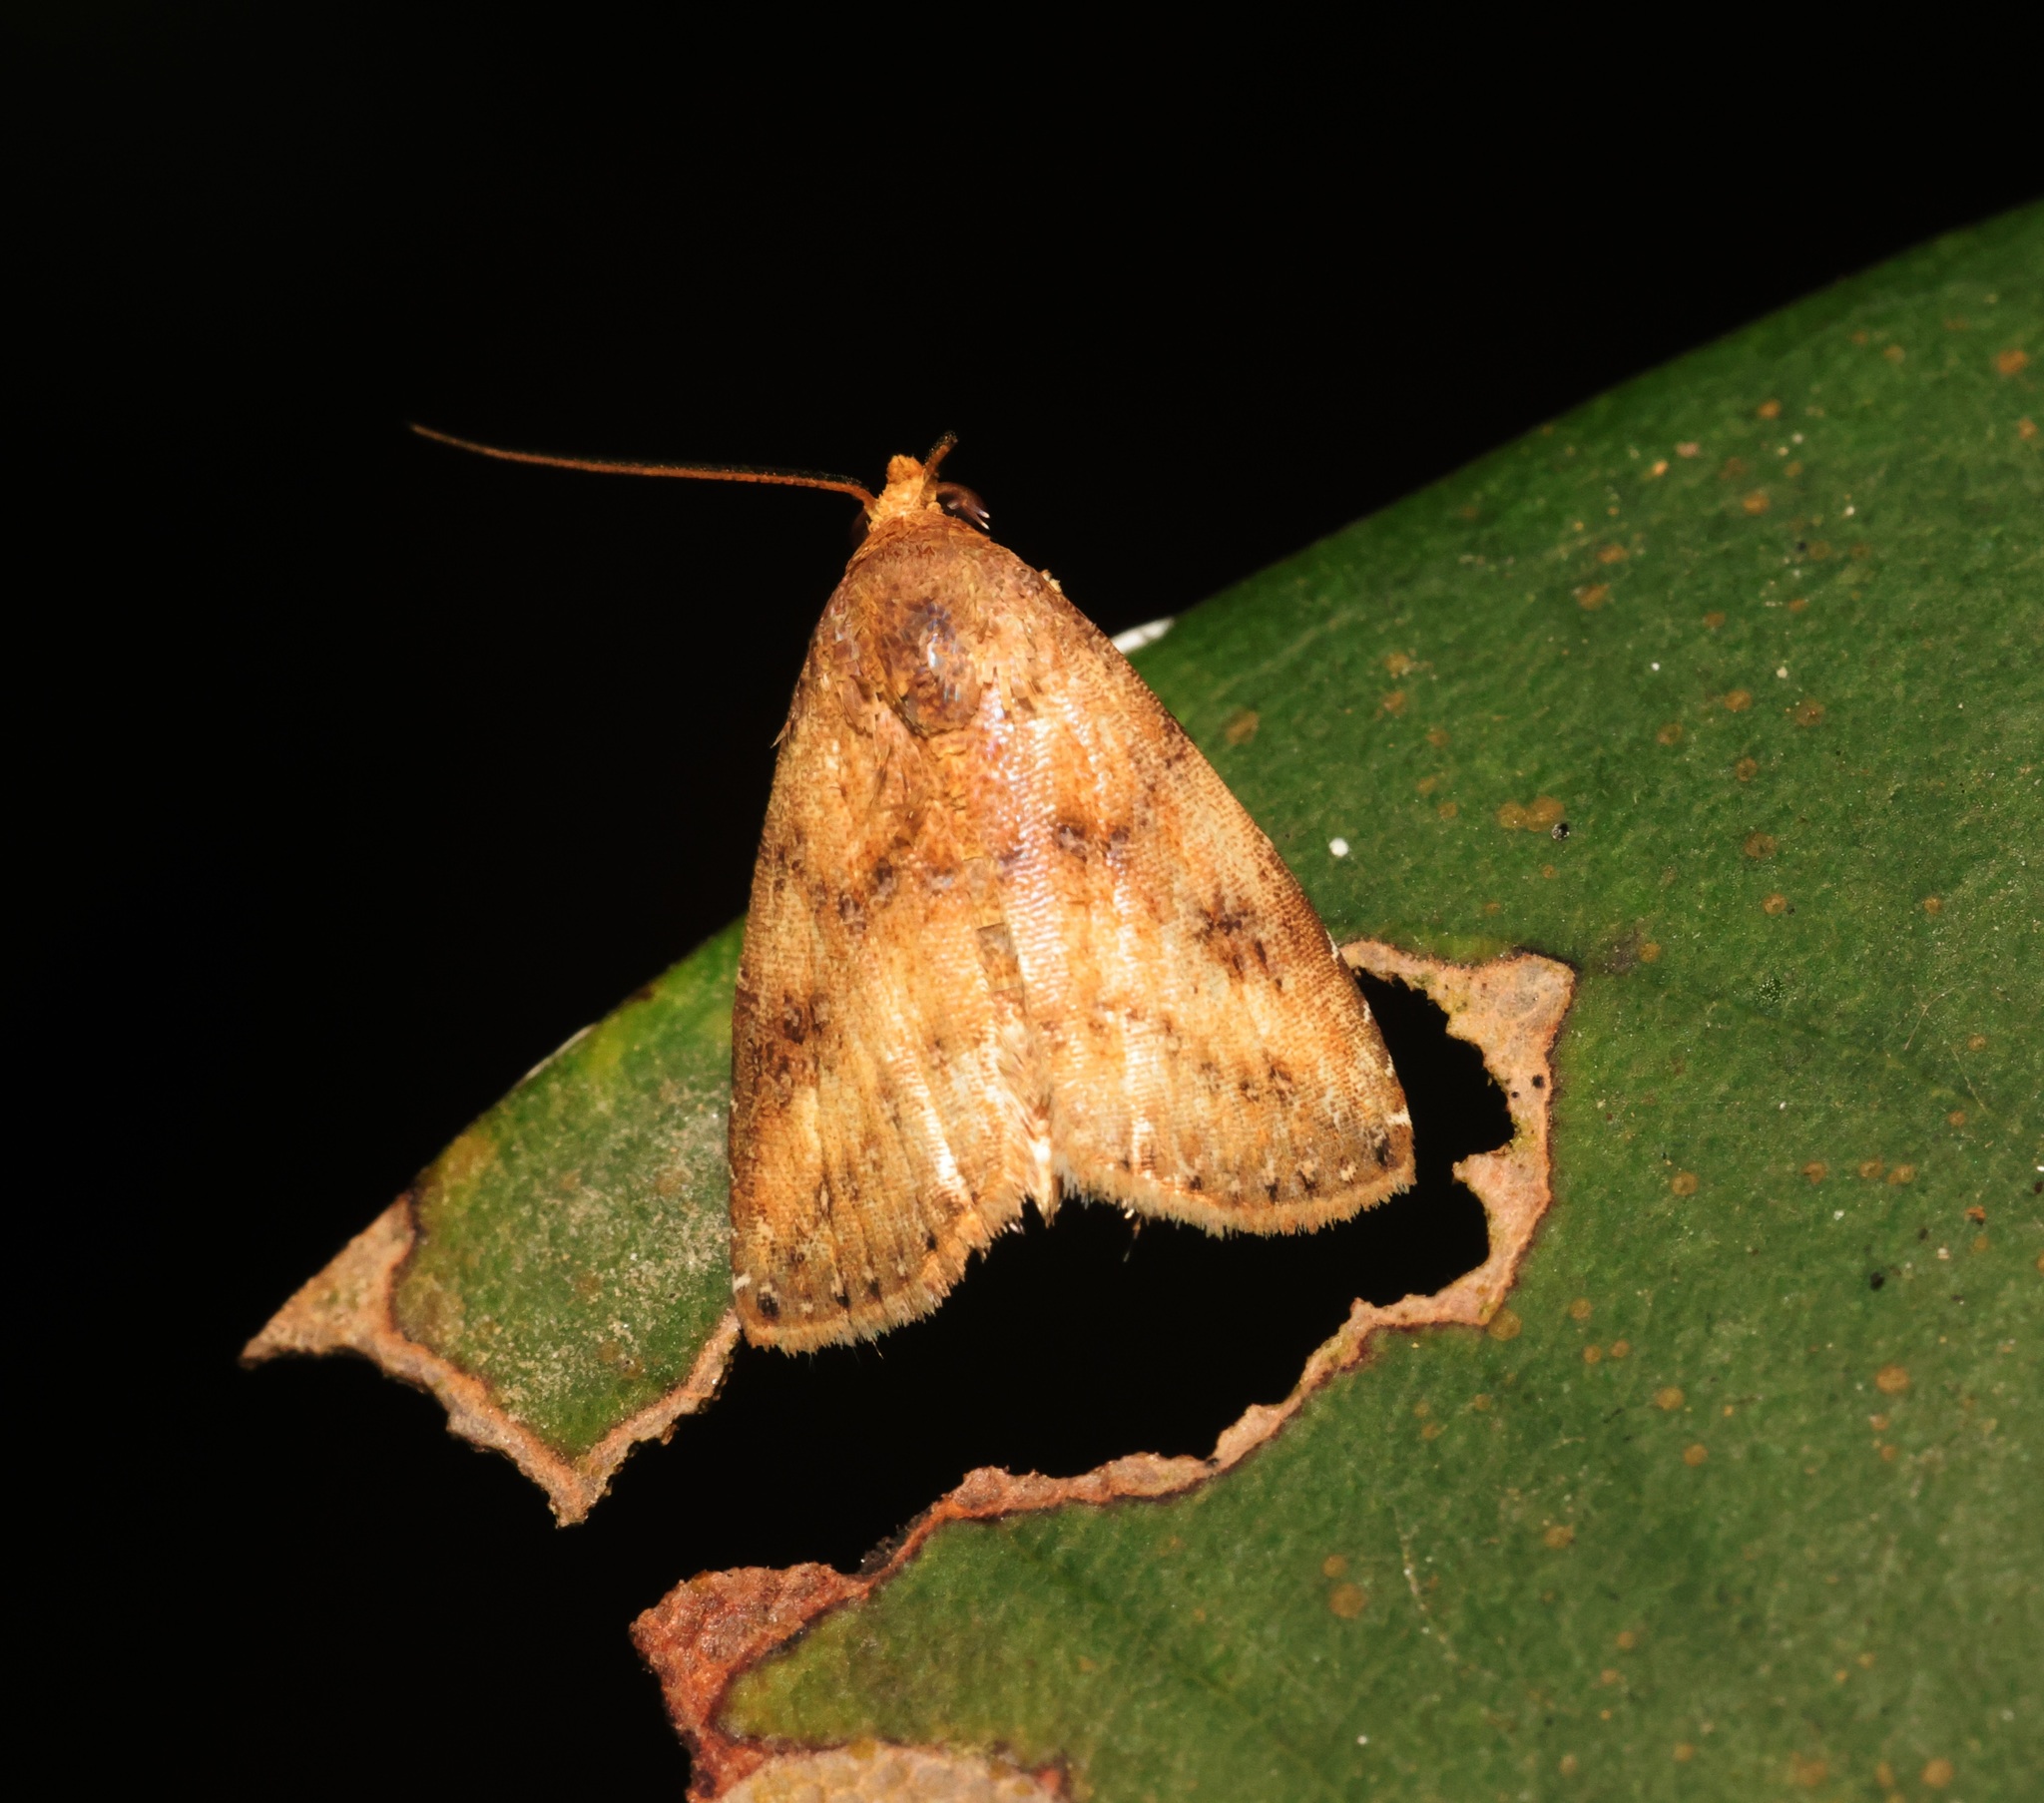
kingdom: Animalia
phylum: Arthropoda
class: Insecta
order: Lepidoptera
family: Erebidae
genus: Rivula
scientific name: Rivula sordida
